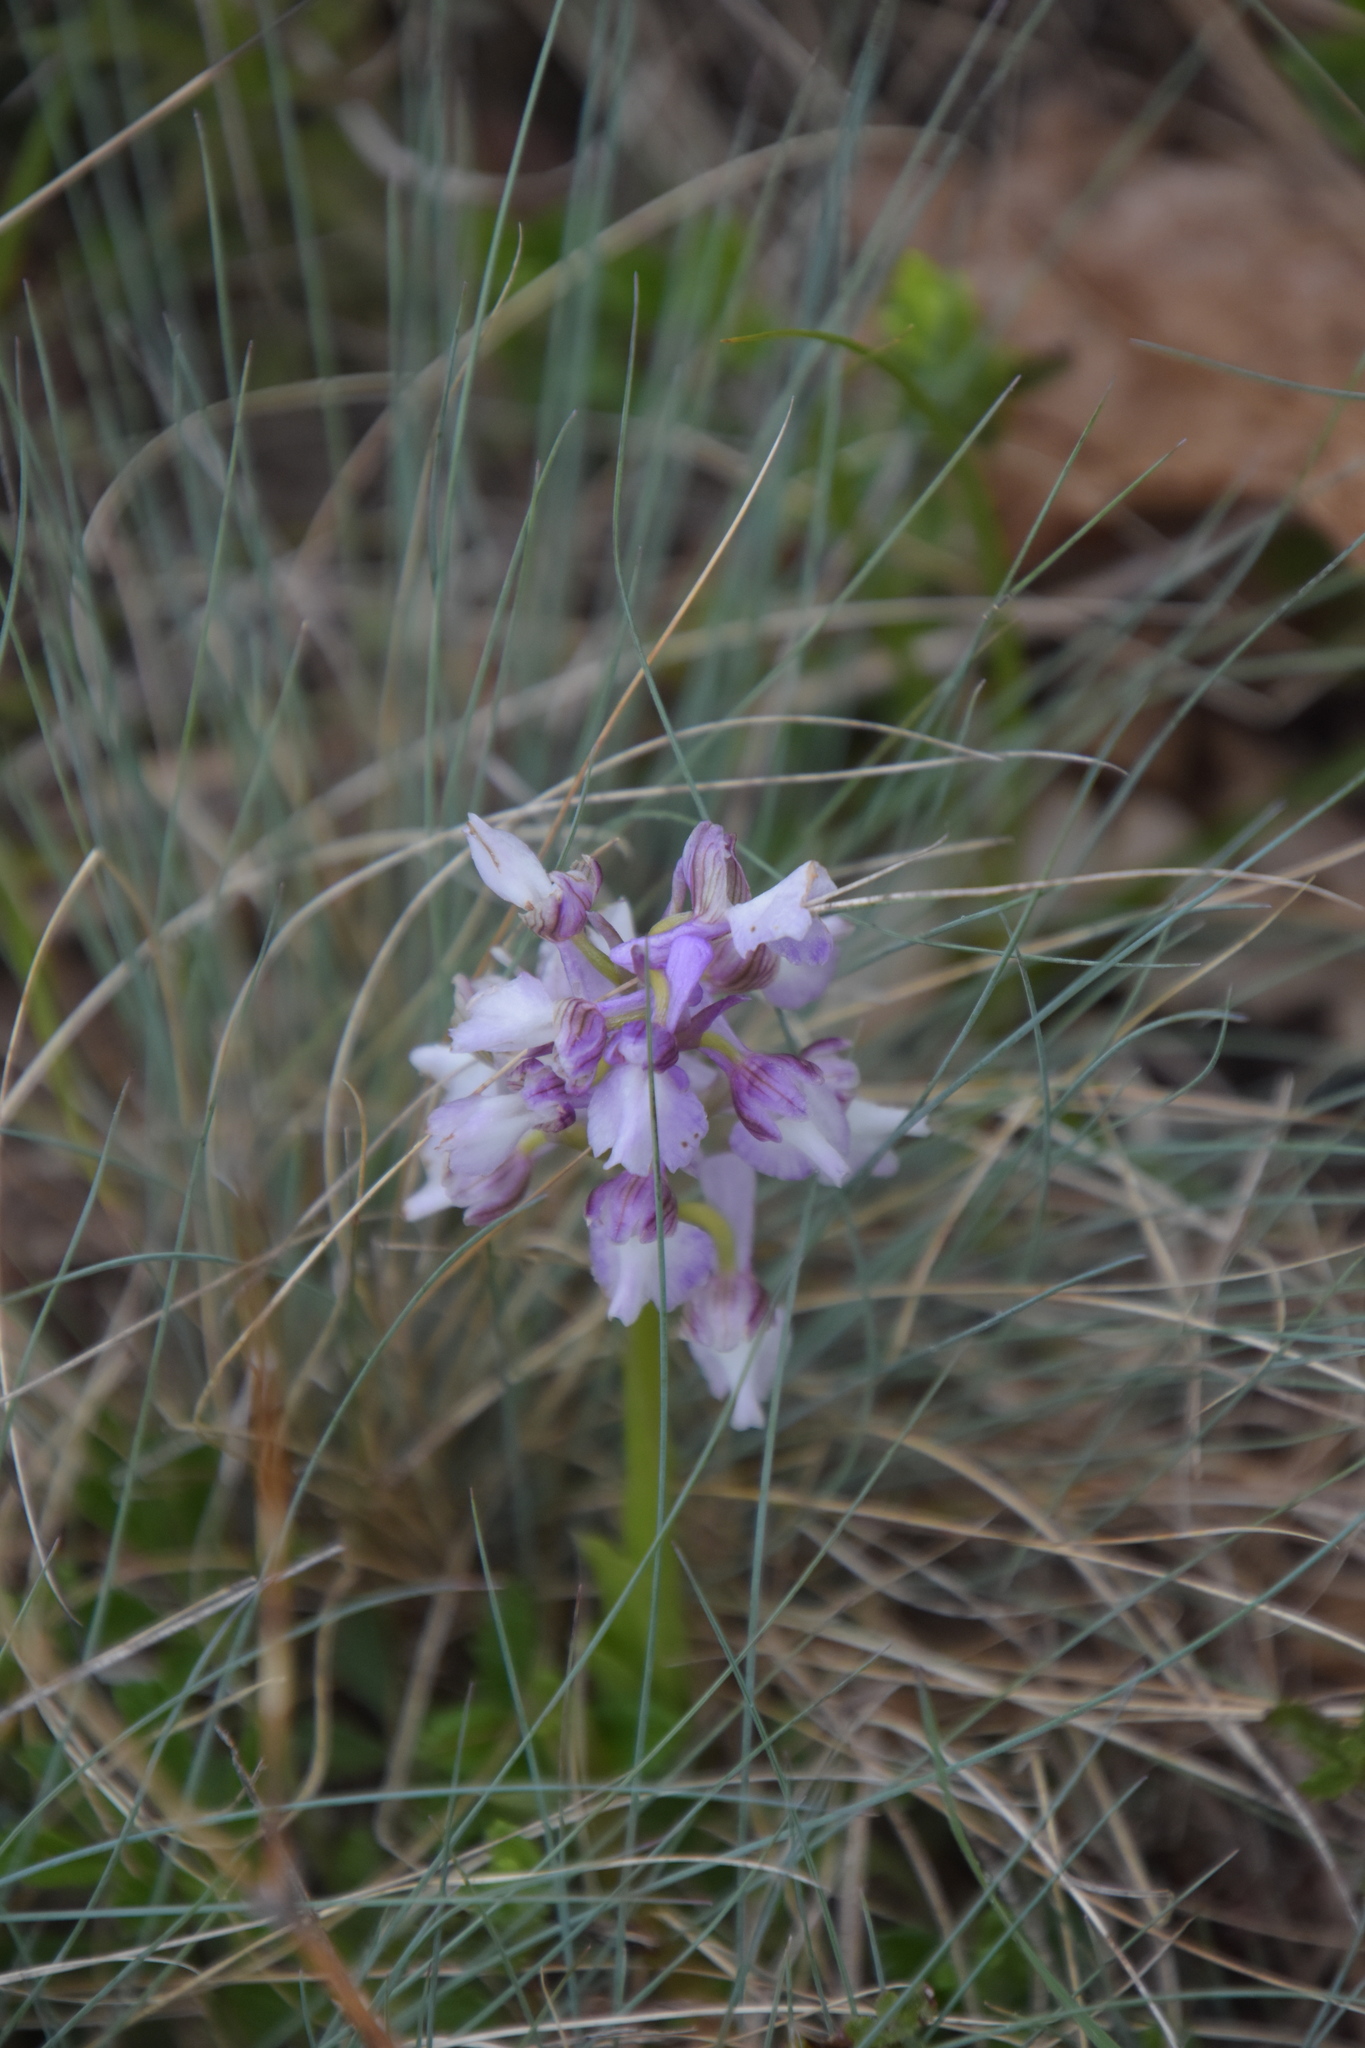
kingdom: Plantae
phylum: Tracheophyta
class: Liliopsida
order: Asparagales
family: Orchidaceae
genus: Anacamptis
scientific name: Anacamptis morio
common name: Green-winged orchid
